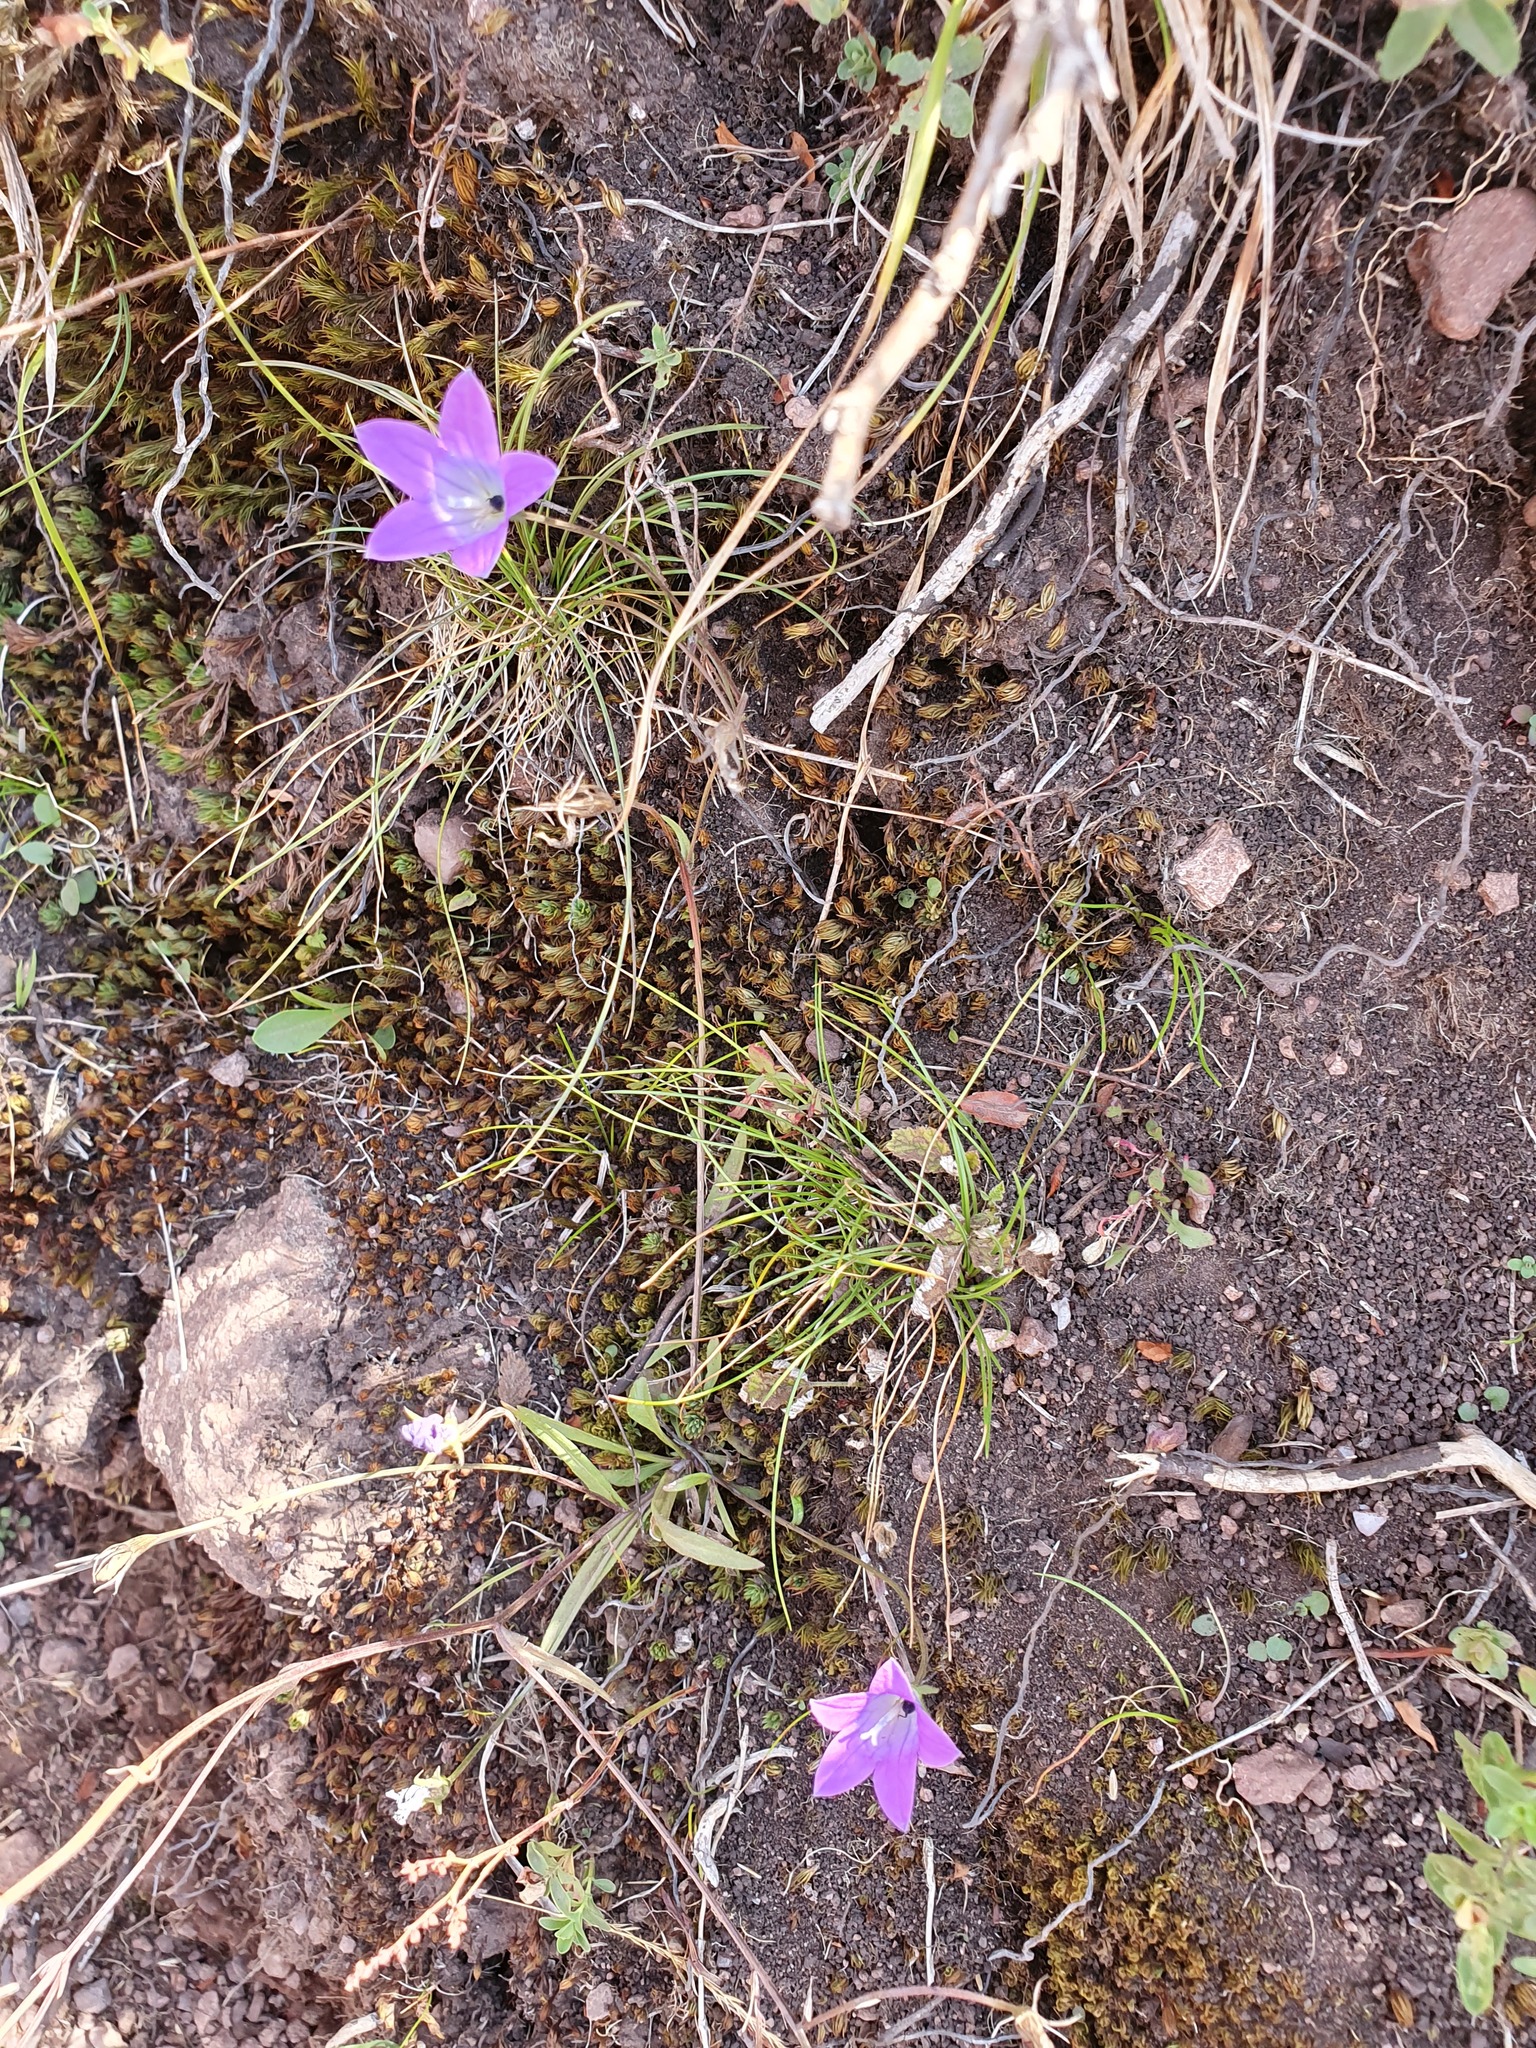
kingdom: Plantae
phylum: Tracheophyta
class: Magnoliopsida
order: Asterales
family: Campanulaceae
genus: Campanula
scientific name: Campanula patula
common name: Spreading bellflower
